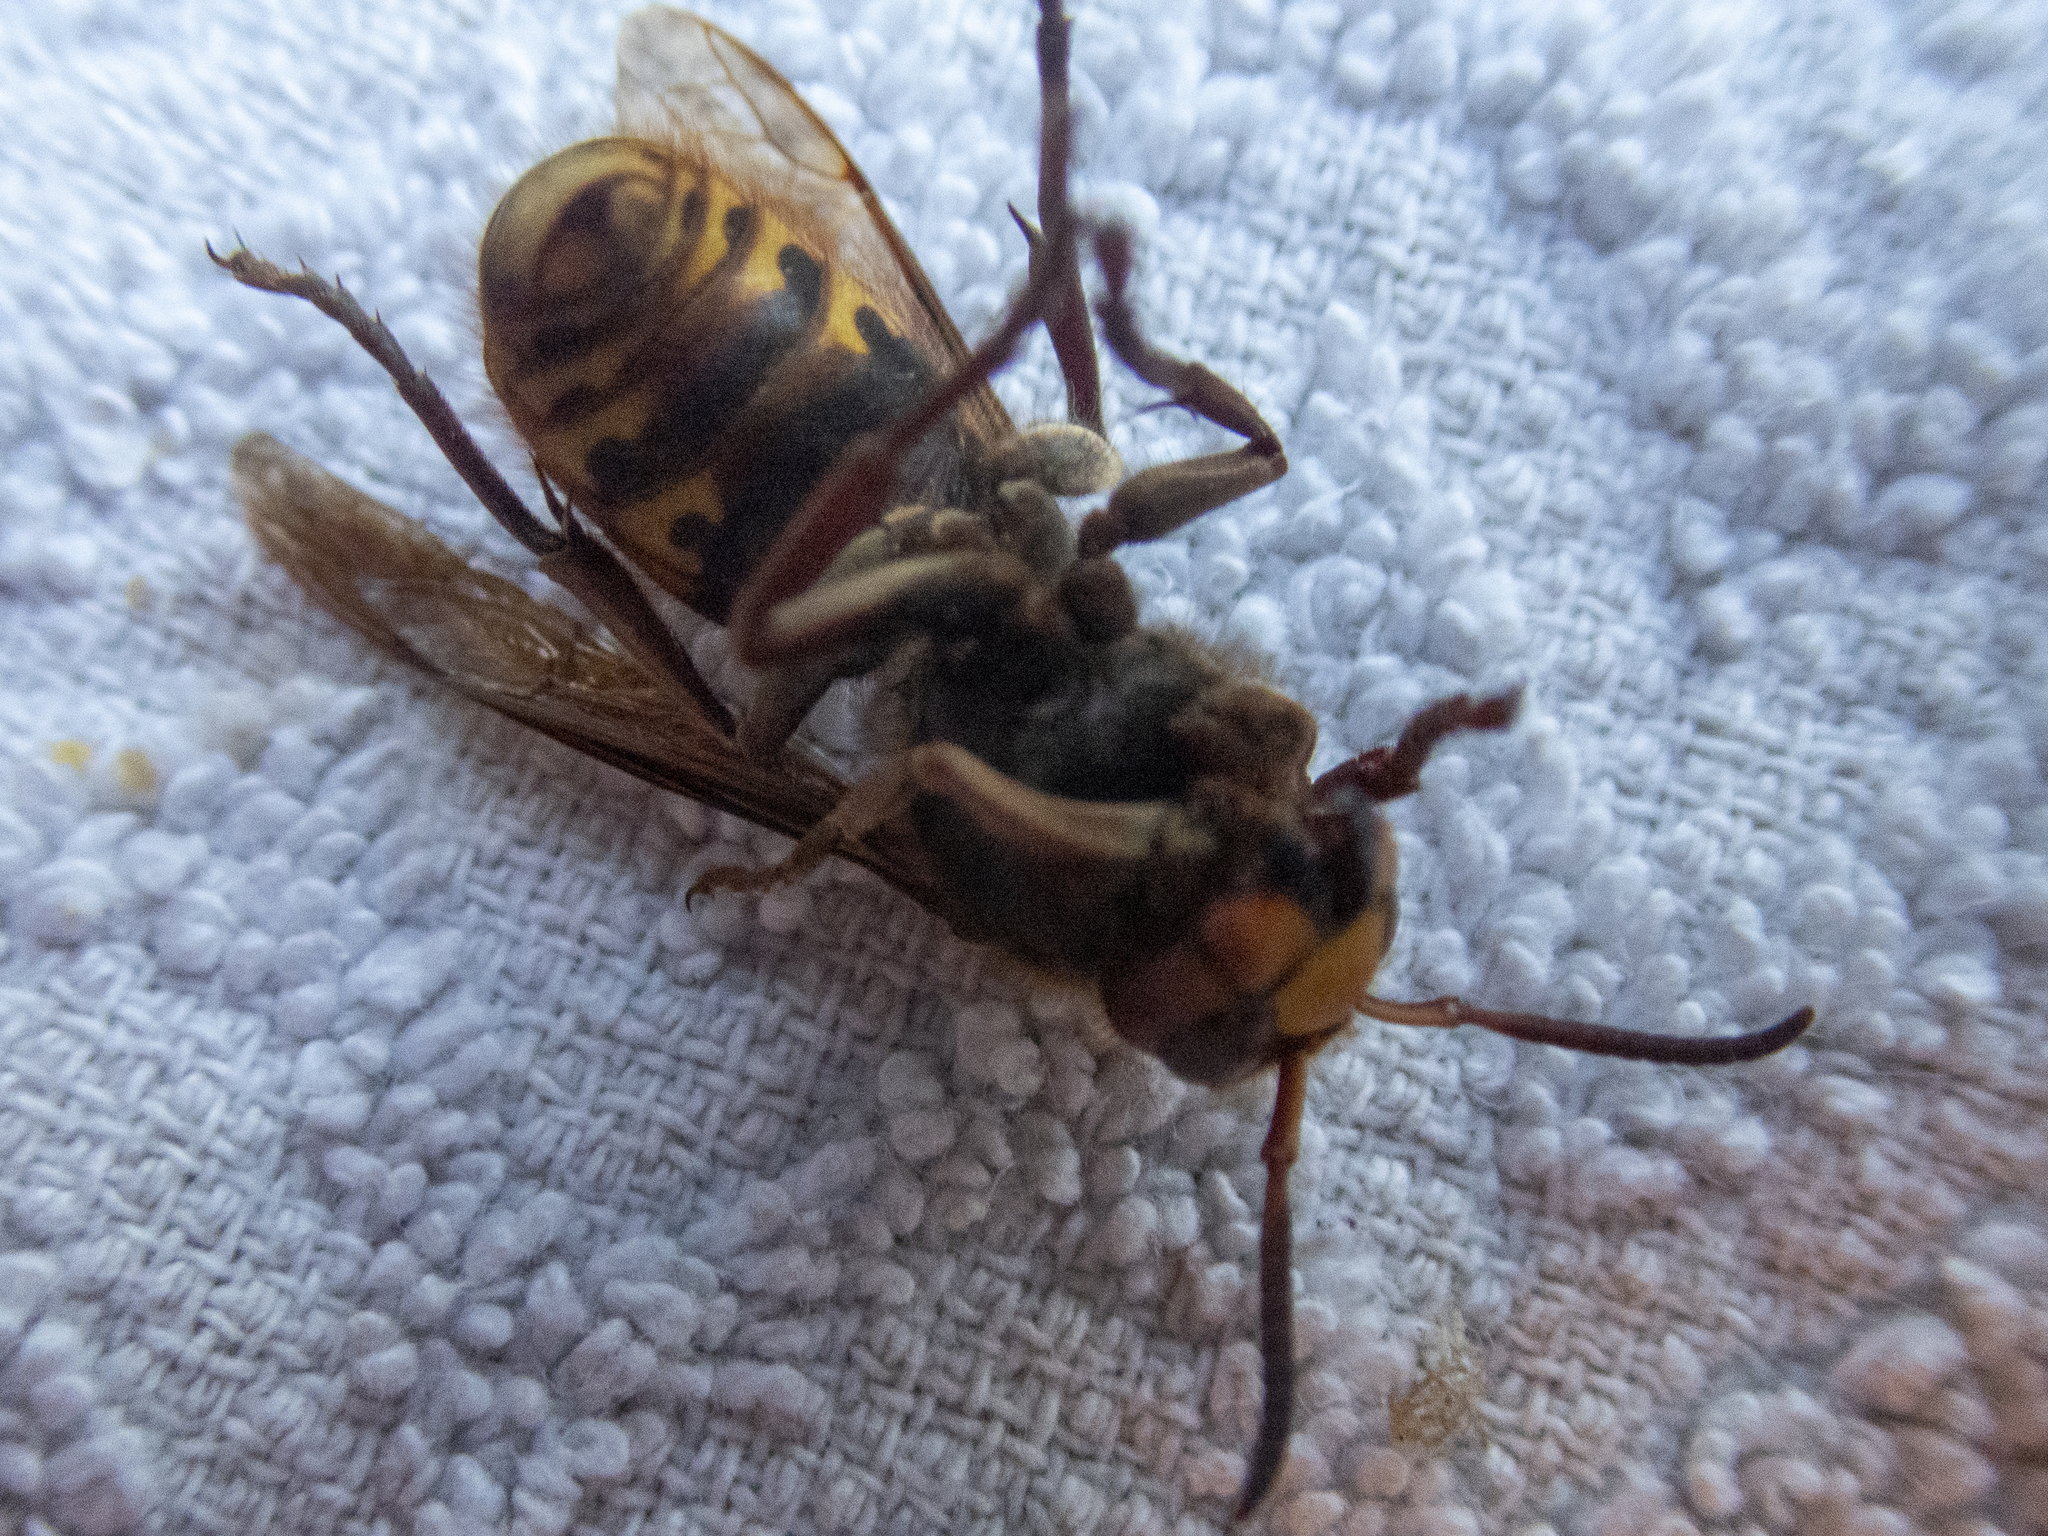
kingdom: Animalia
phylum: Arthropoda
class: Insecta
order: Hymenoptera
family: Vespidae
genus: Vespa
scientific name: Vespa crabro
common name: Hornet
